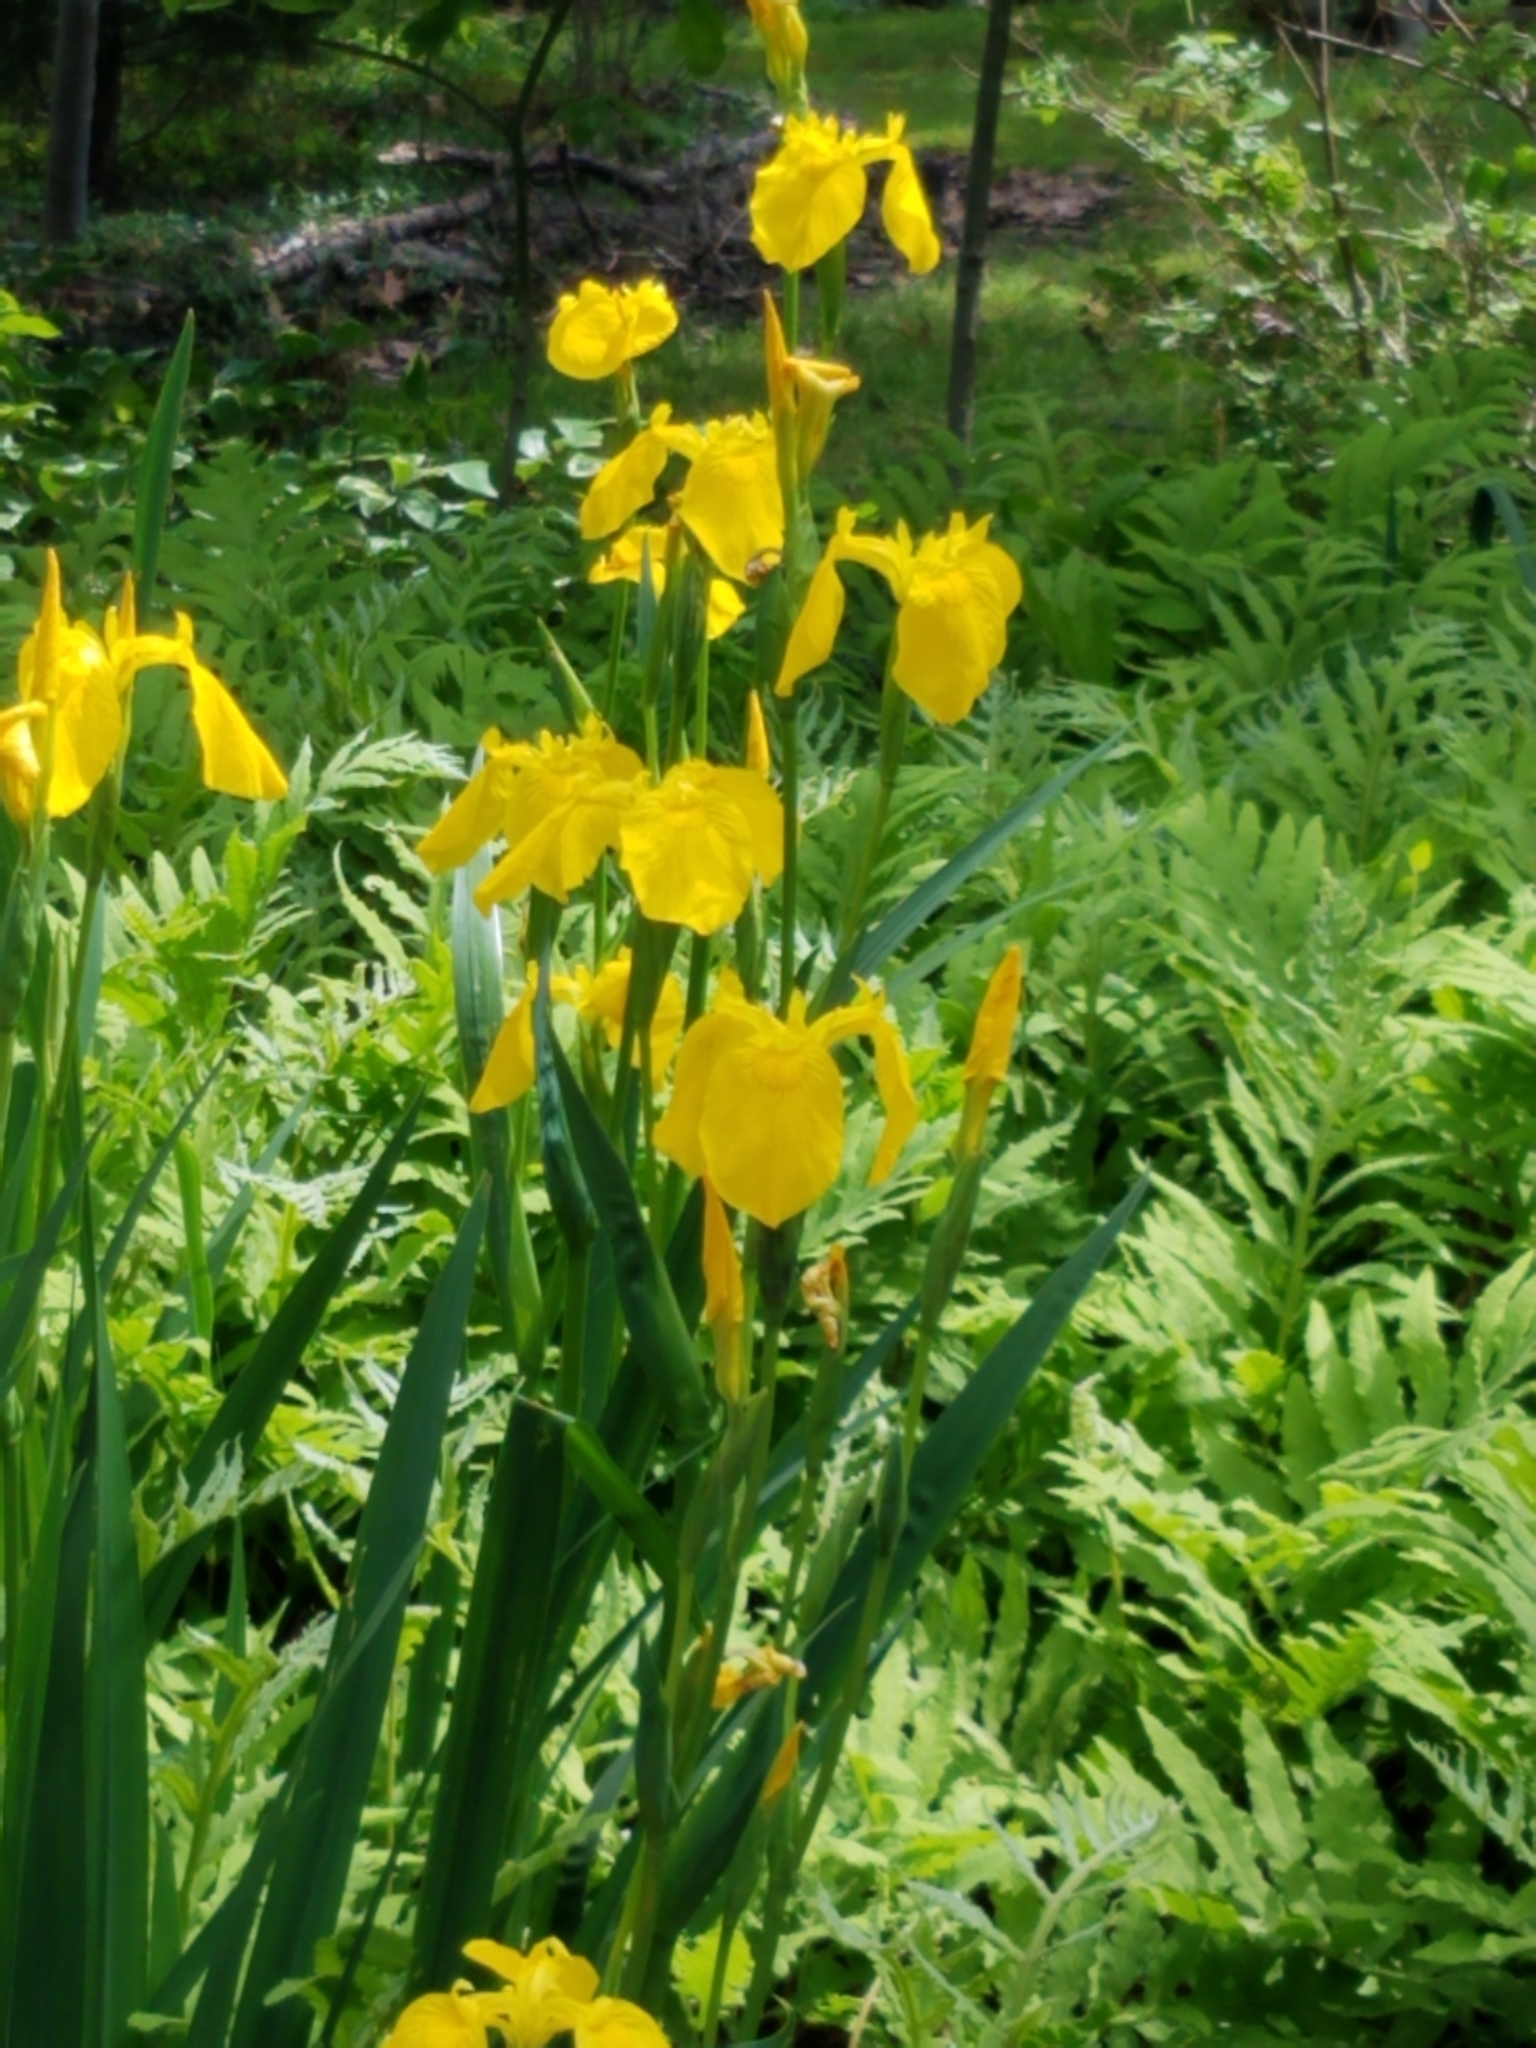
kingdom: Plantae
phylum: Tracheophyta
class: Liliopsida
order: Asparagales
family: Iridaceae
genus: Iris
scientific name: Iris pseudacorus
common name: Yellow flag
